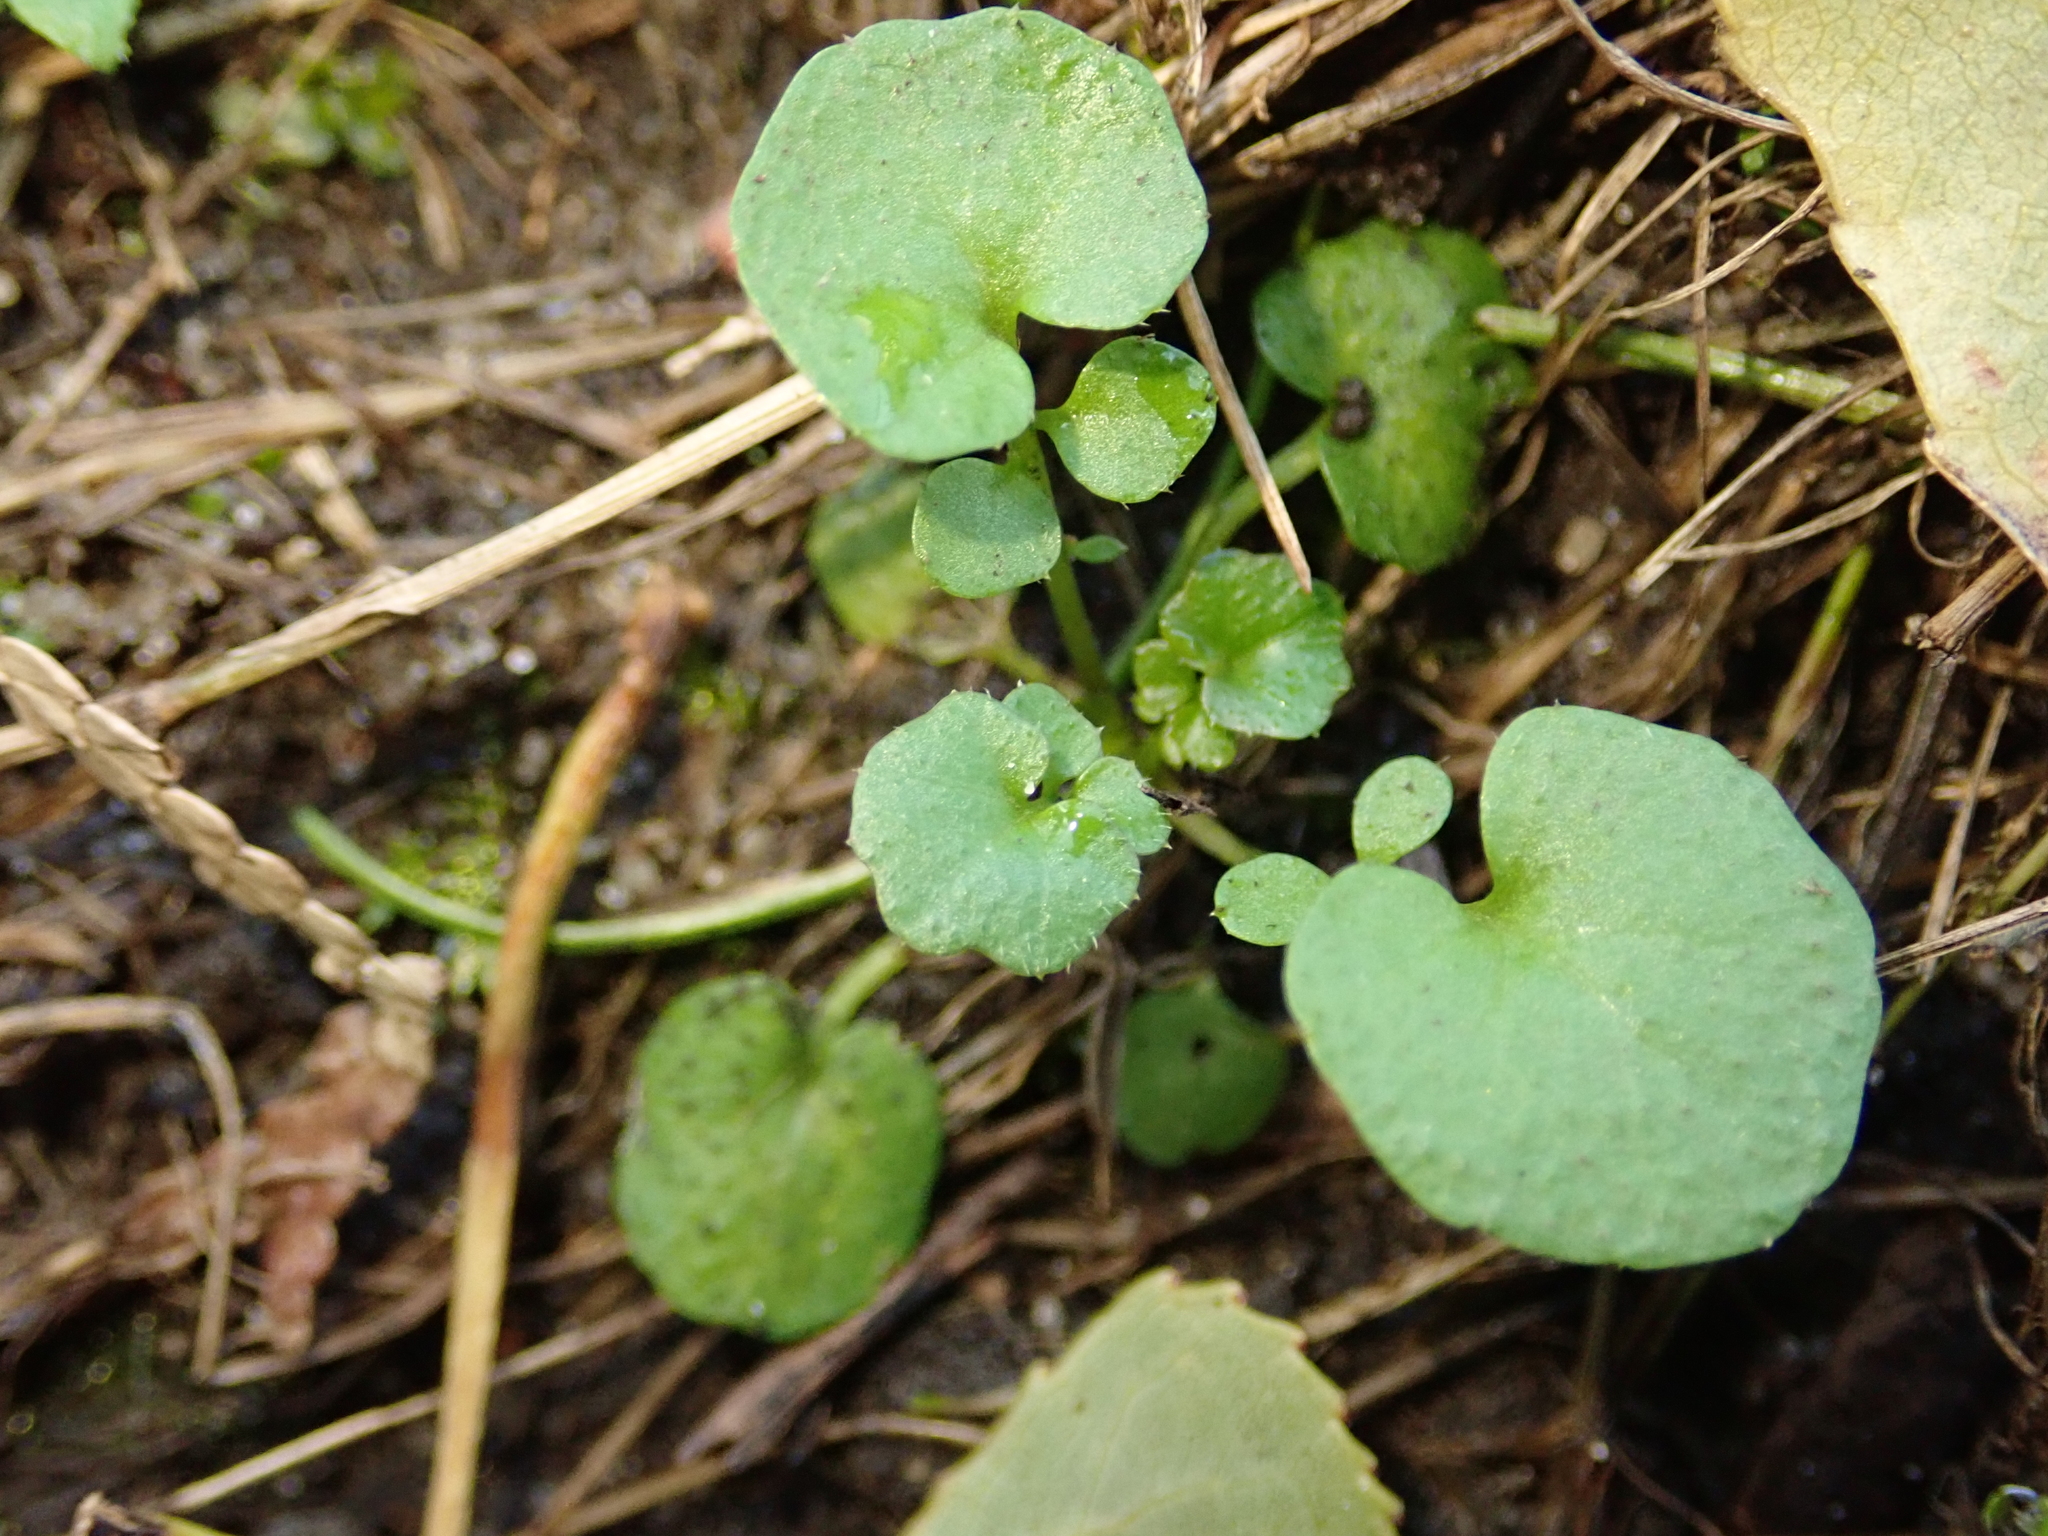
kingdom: Plantae
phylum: Tracheophyta
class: Magnoliopsida
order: Brassicales
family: Brassicaceae
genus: Cardamine
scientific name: Cardamine hirsuta
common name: Hairy bittercress
